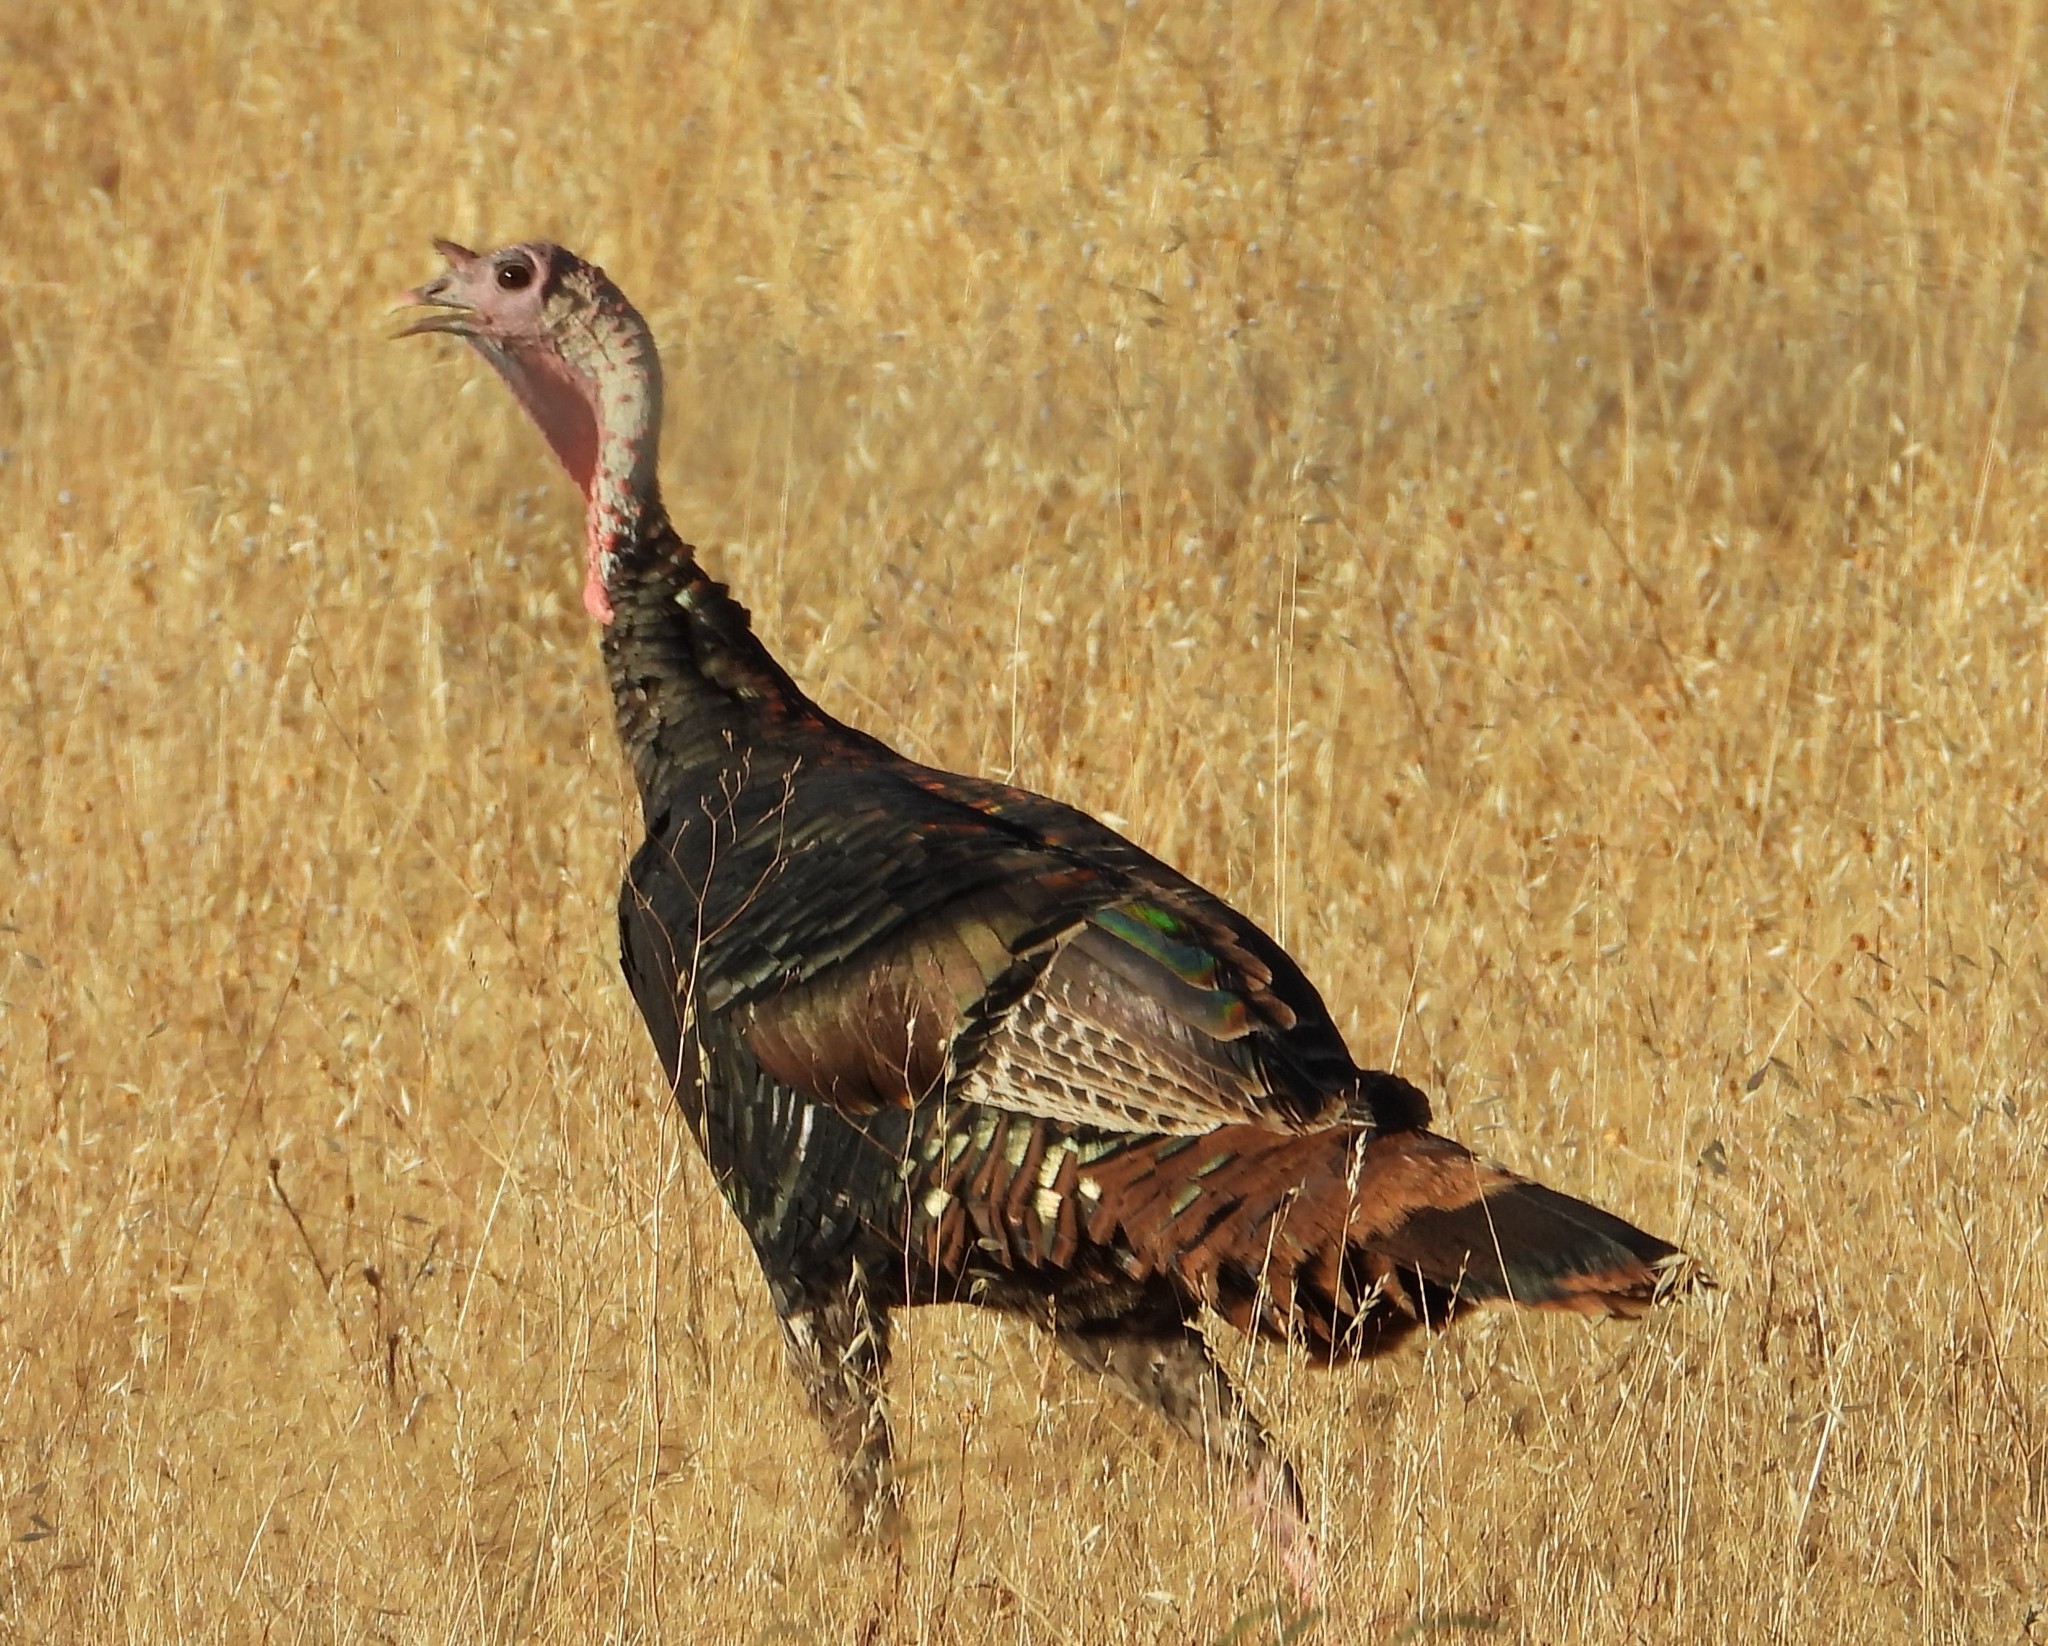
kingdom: Animalia
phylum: Chordata
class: Aves
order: Galliformes
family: Phasianidae
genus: Meleagris
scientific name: Meleagris gallopavo
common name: Wild turkey
